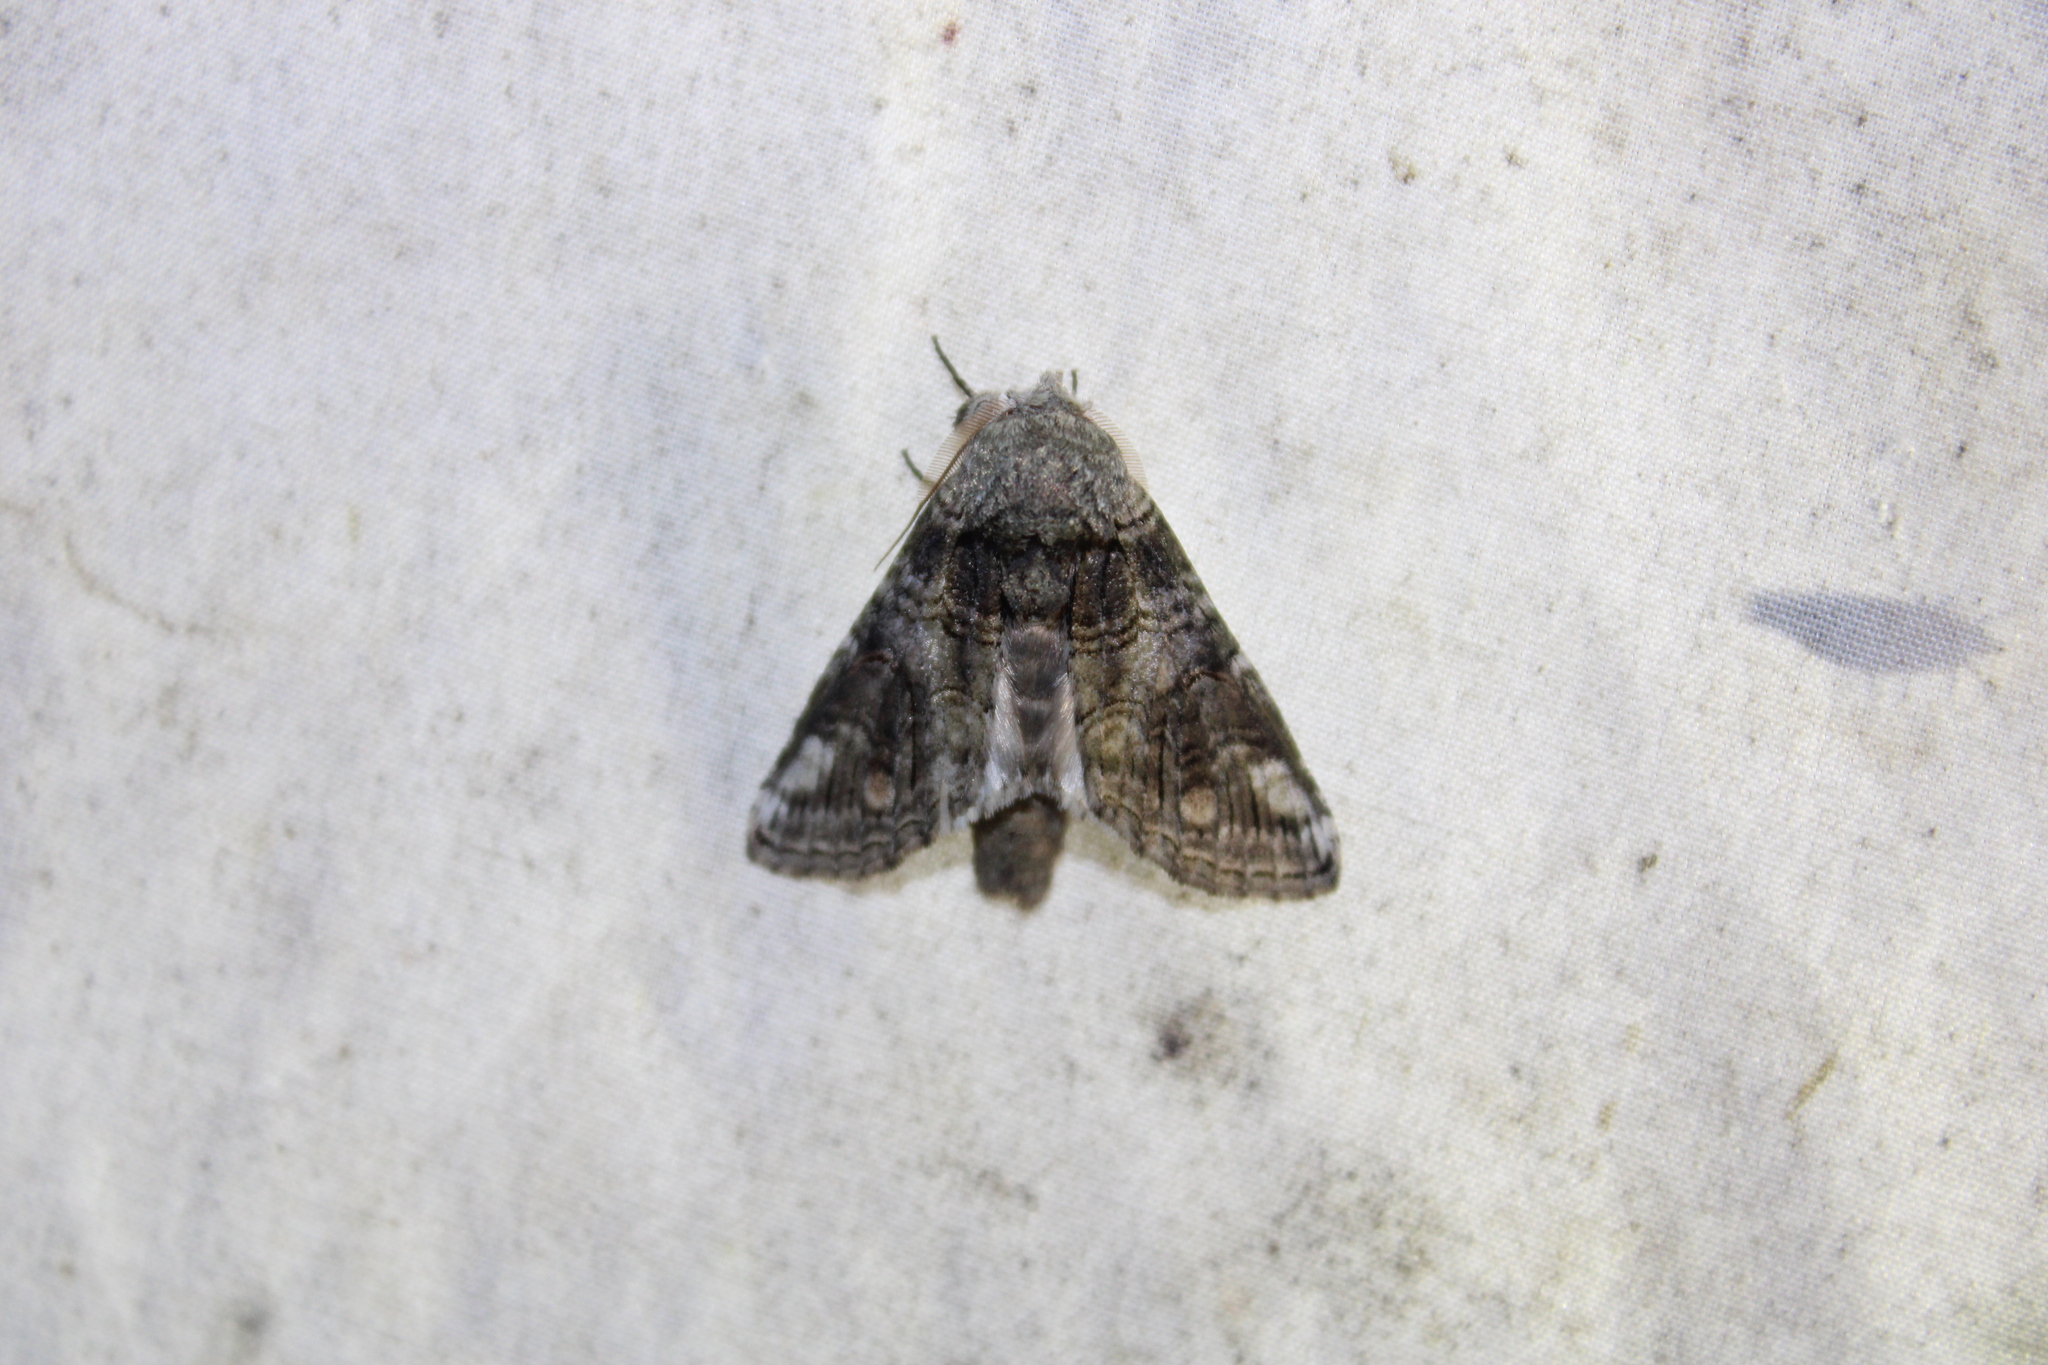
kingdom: Animalia
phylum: Arthropoda
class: Insecta
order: Lepidoptera
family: Notodontidae
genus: Heterocampa
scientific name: Heterocampa obliqua
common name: Oblique heterocampa
